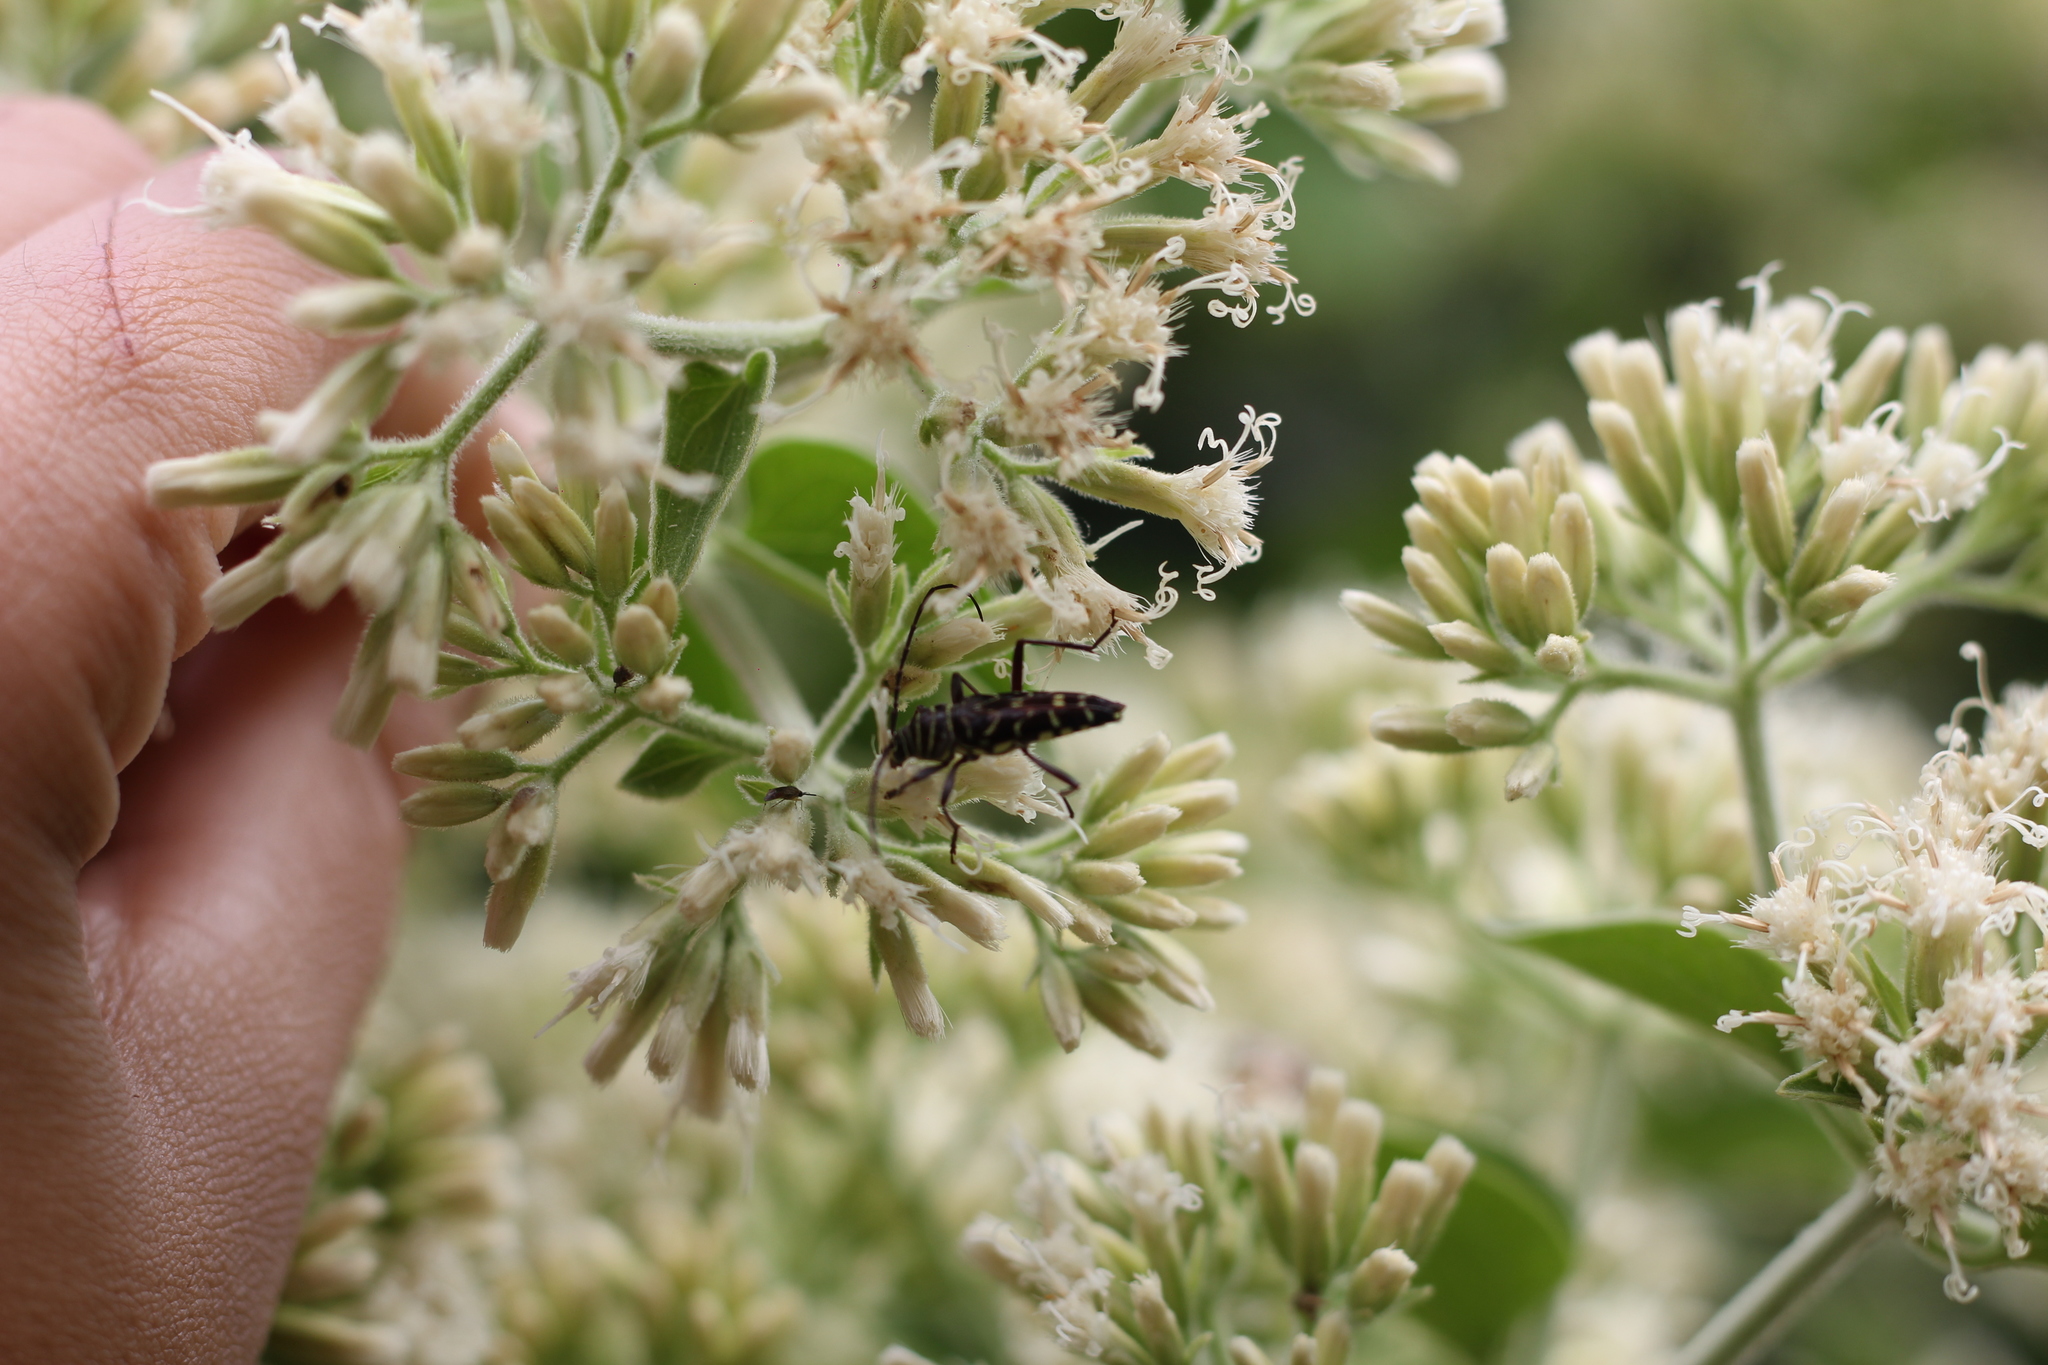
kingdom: Animalia
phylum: Arthropoda
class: Insecta
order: Coleoptera
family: Cerambycidae
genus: Megacyllene
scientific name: Megacyllene acuta
